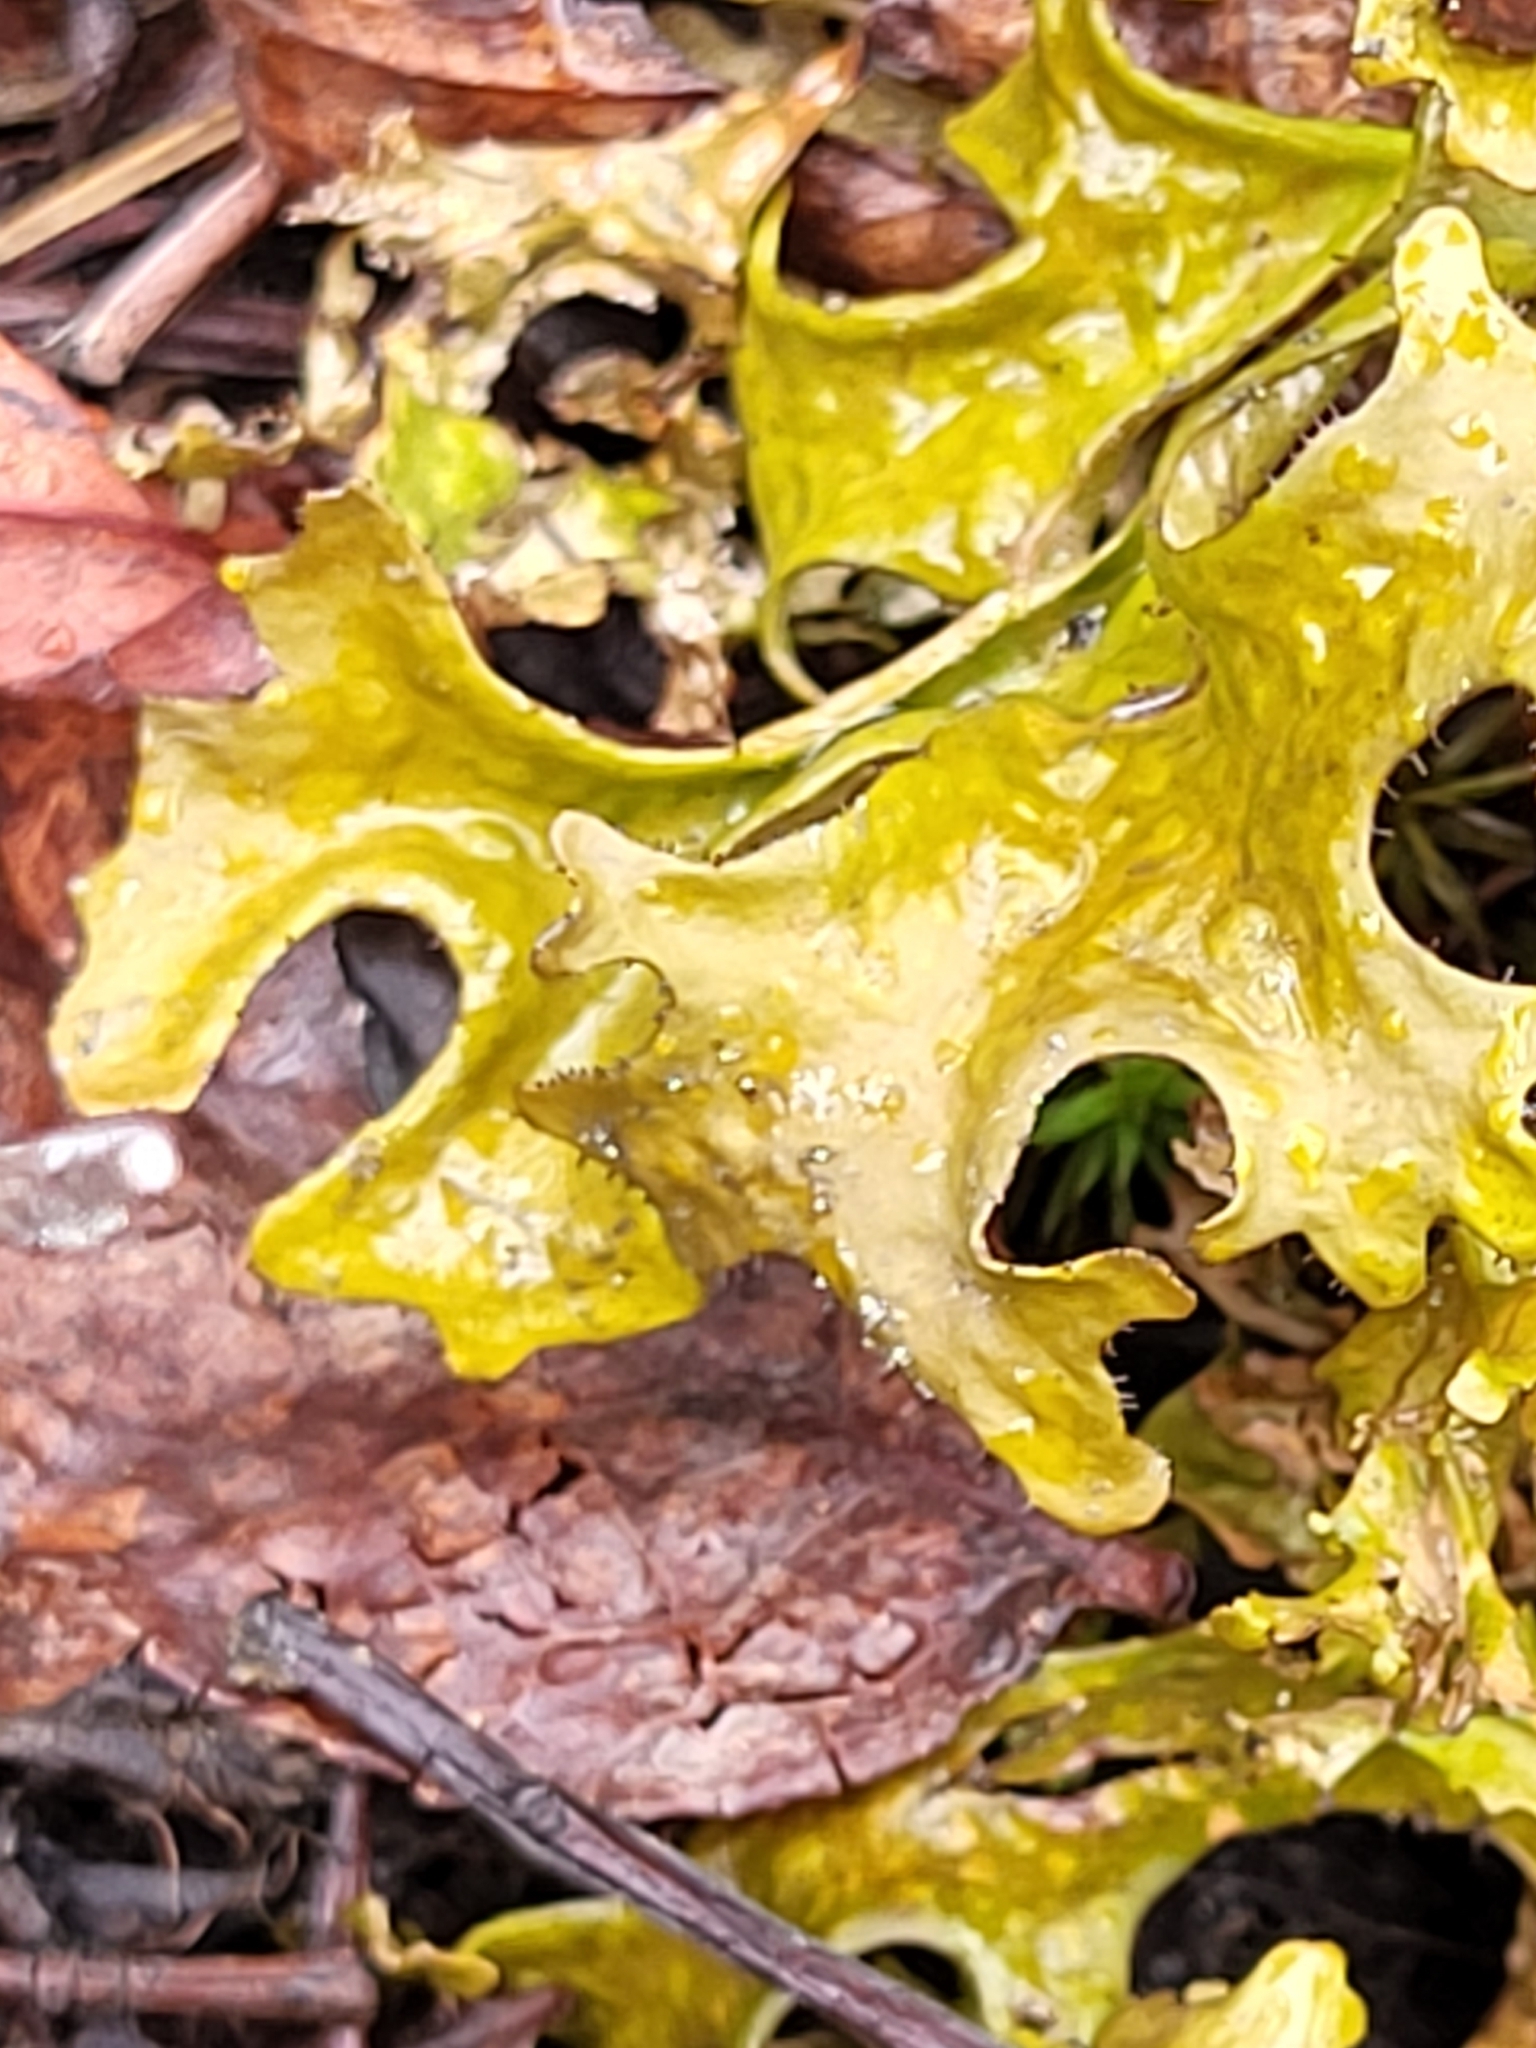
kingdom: Fungi
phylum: Ascomycota
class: Lecanoromycetes
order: Lecanorales
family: Parmeliaceae
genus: Cetraria
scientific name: Cetraria islandica
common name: Iceland lichen
